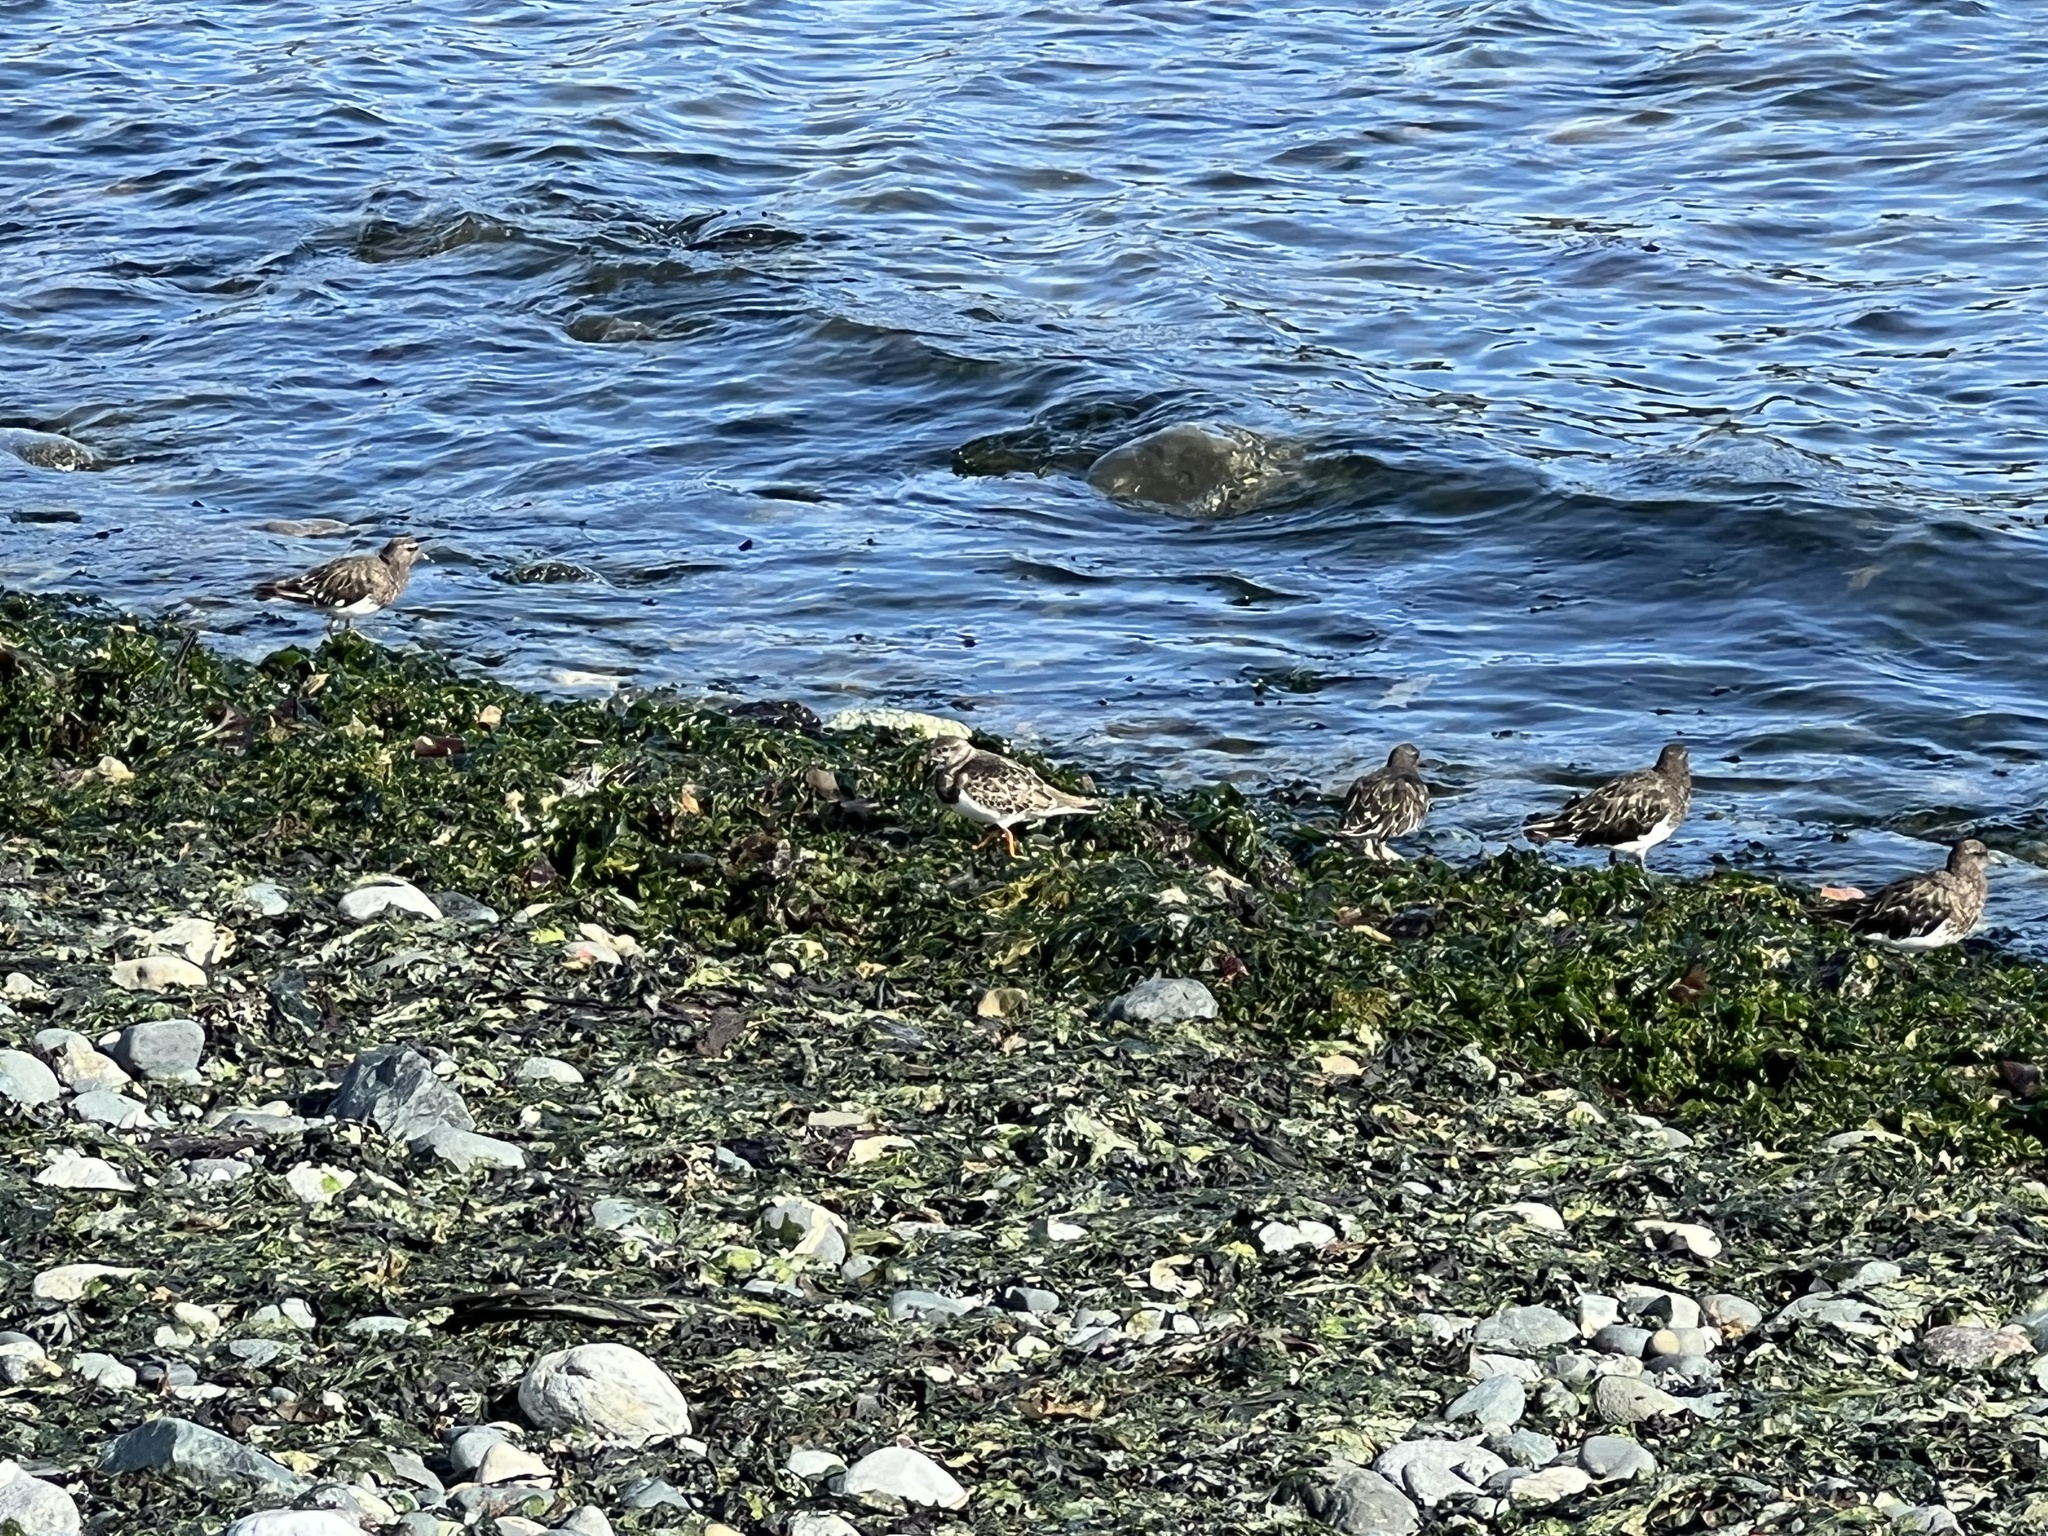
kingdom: Animalia
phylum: Chordata
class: Aves
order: Charadriiformes
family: Scolopacidae
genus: Arenaria
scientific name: Arenaria melanocephala
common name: Black turnstone
